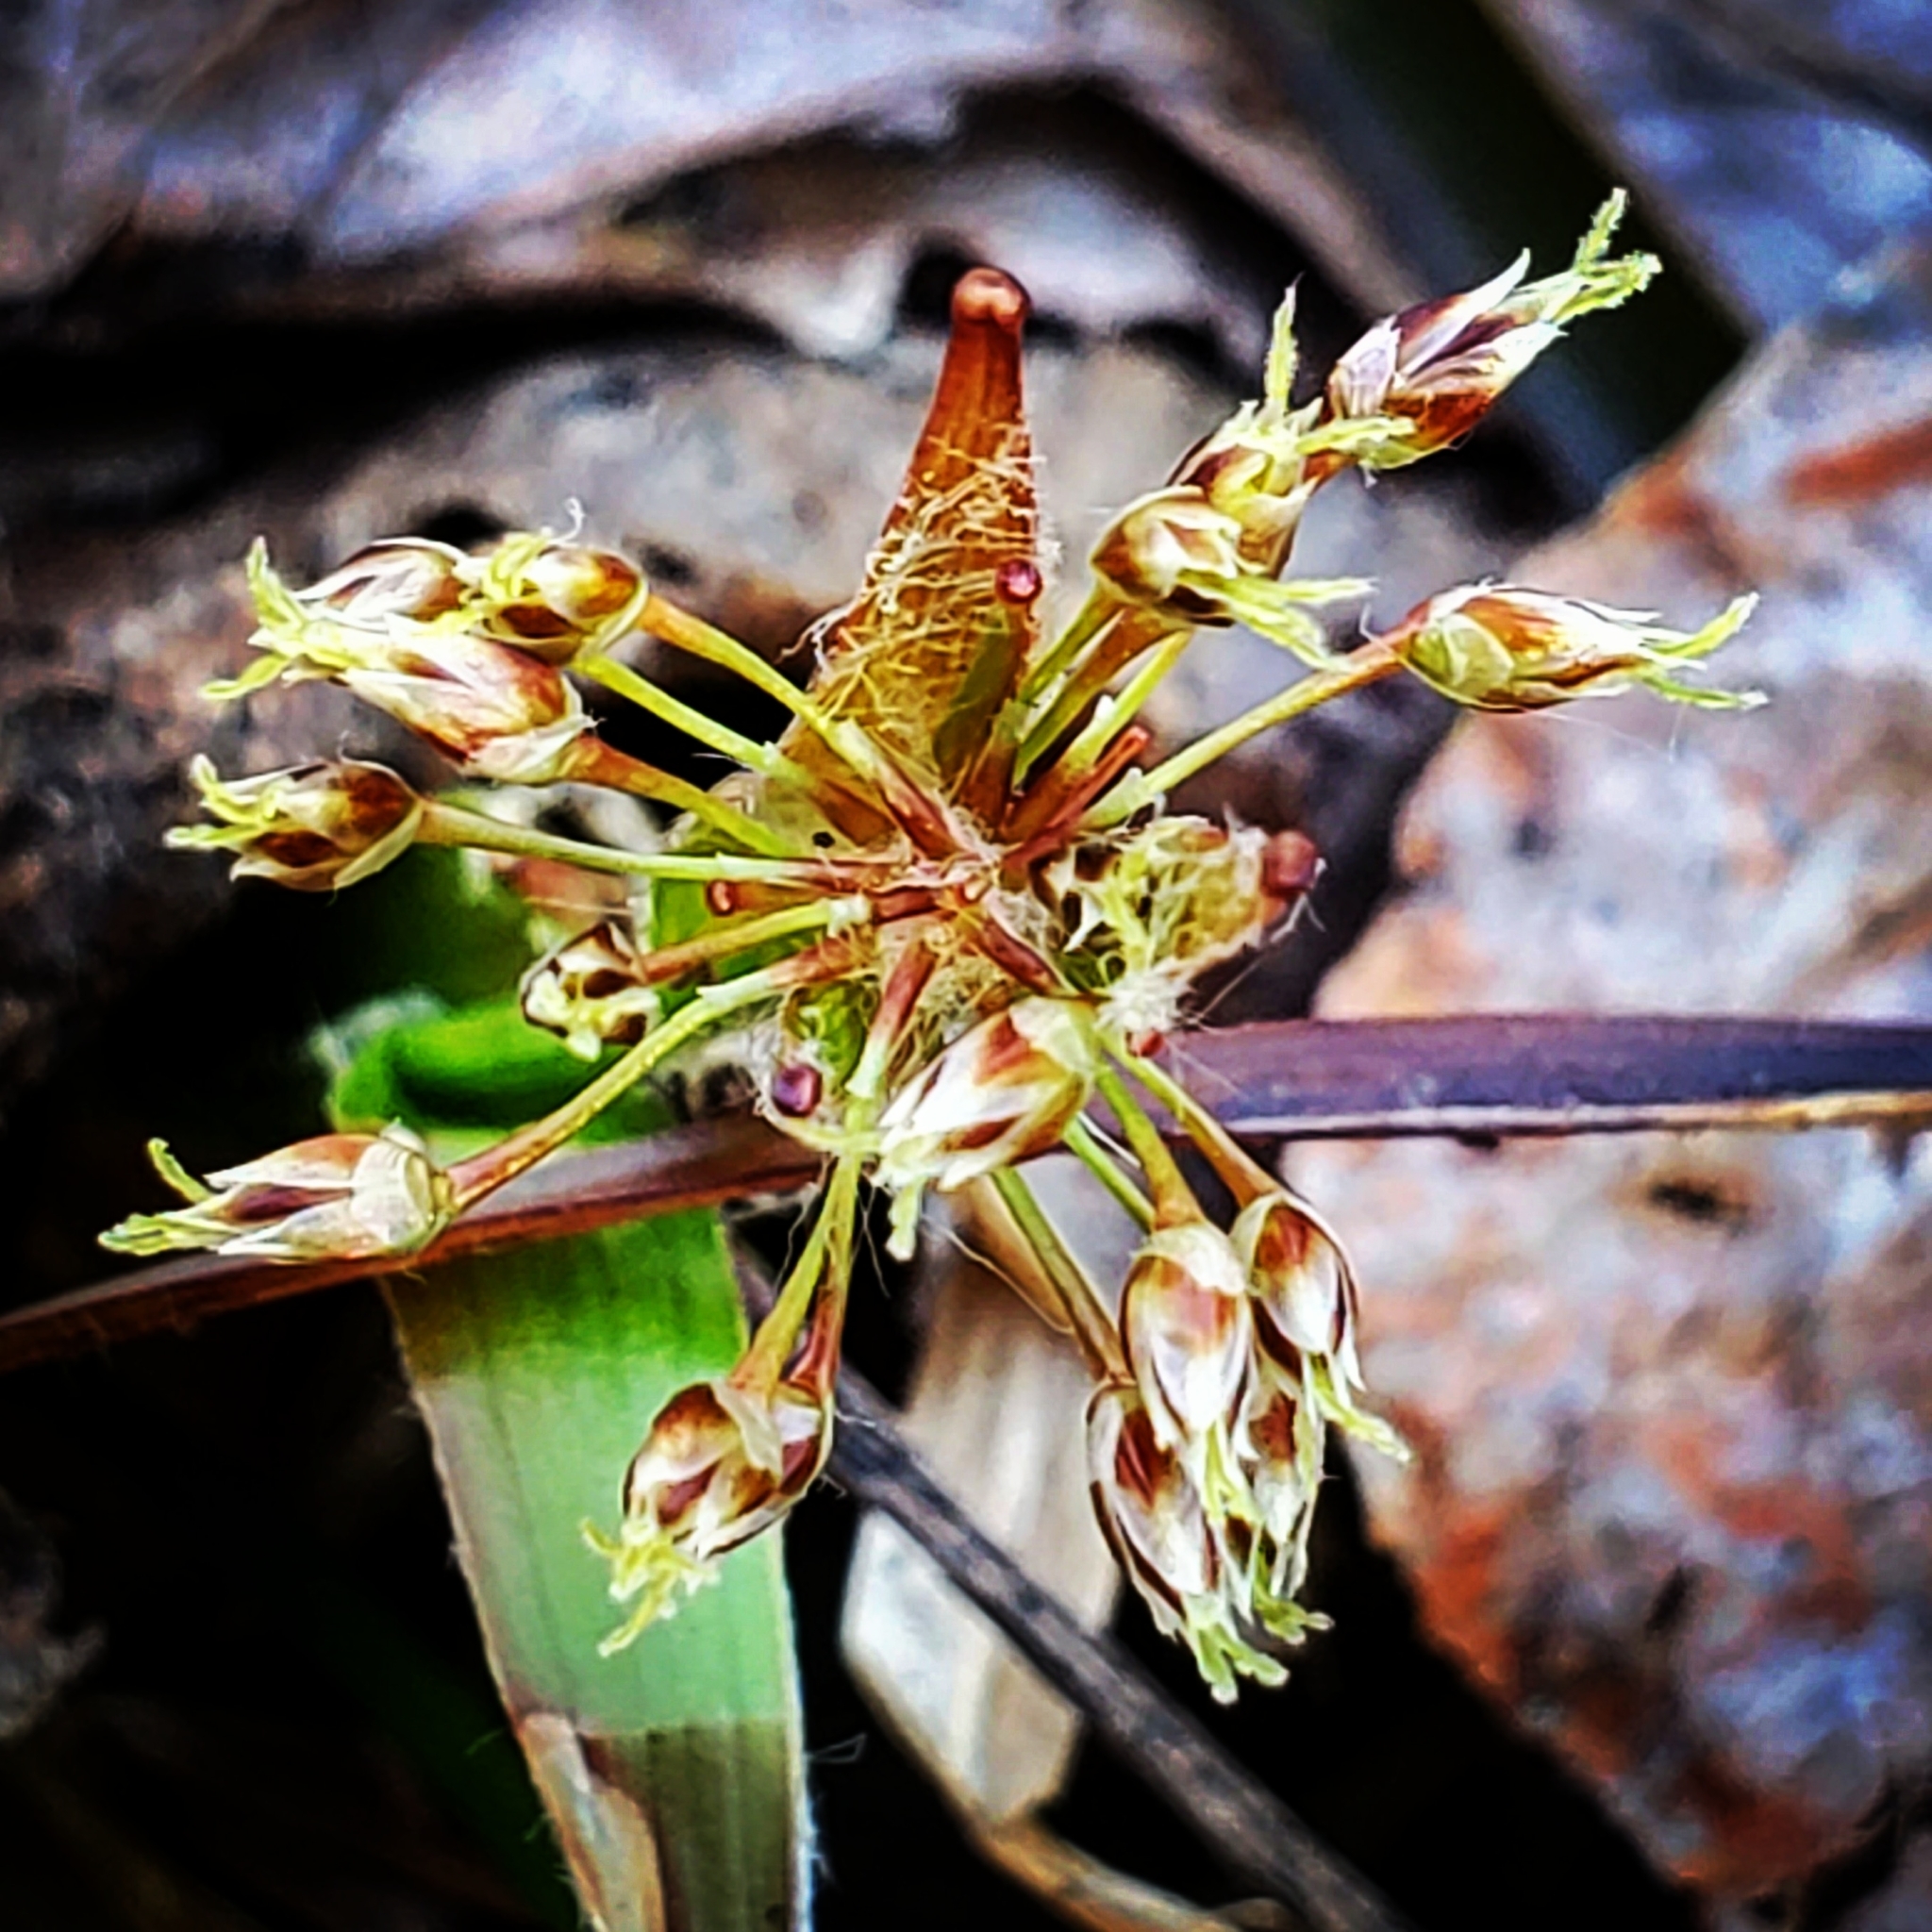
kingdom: Plantae
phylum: Tracheophyta
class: Liliopsida
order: Poales
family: Juncaceae
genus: Luzula
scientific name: Luzula acuminata
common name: Hairy woodrush
